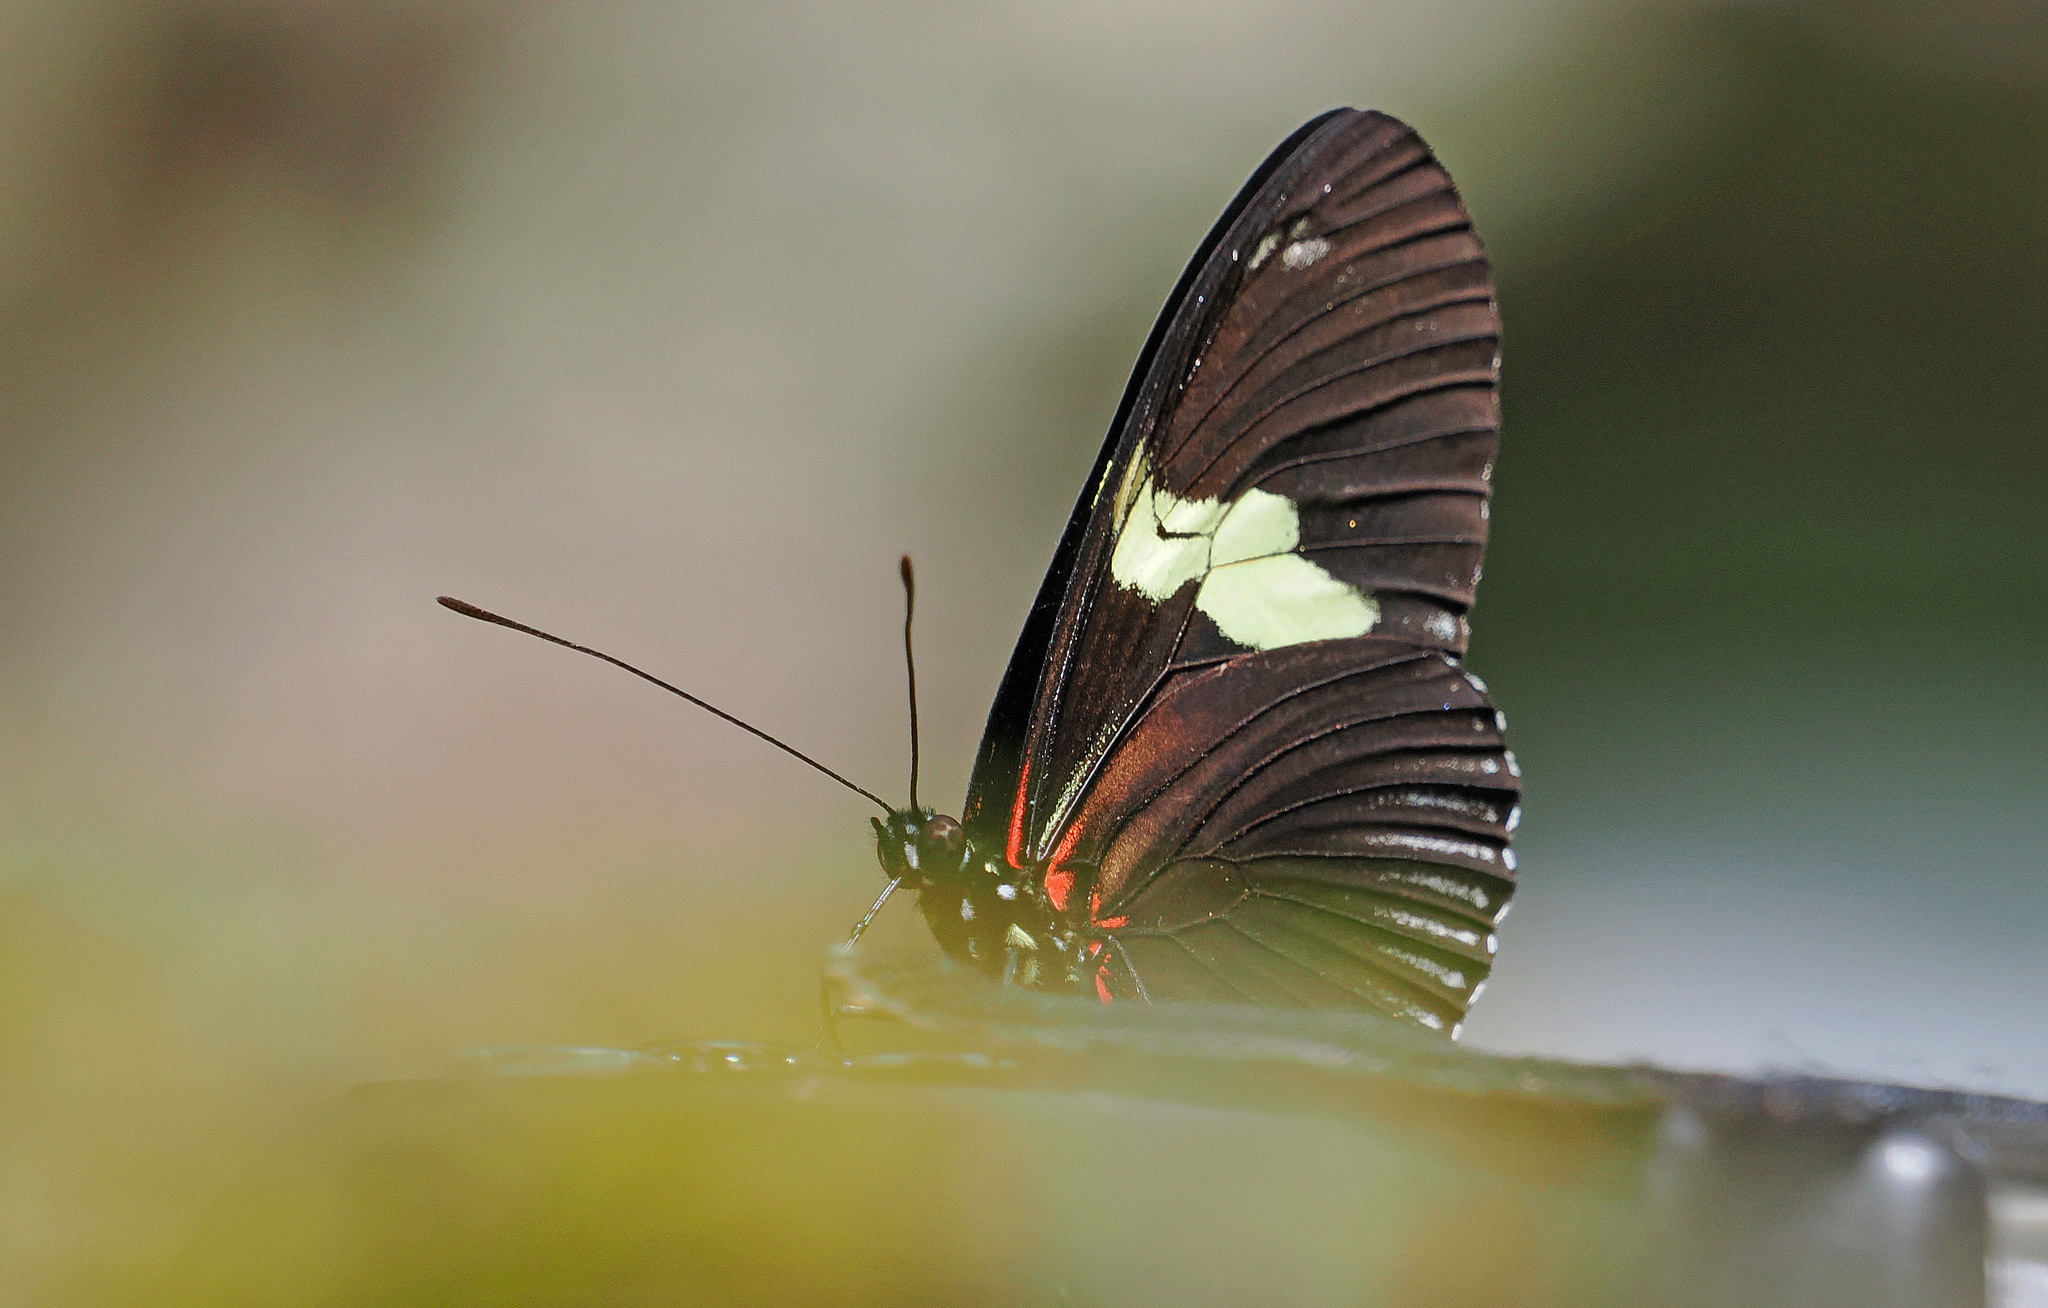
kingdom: Animalia
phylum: Arthropoda
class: Insecta
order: Lepidoptera
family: Nymphalidae
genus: Heliconius
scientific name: Heliconius doris
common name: Doris longwing
